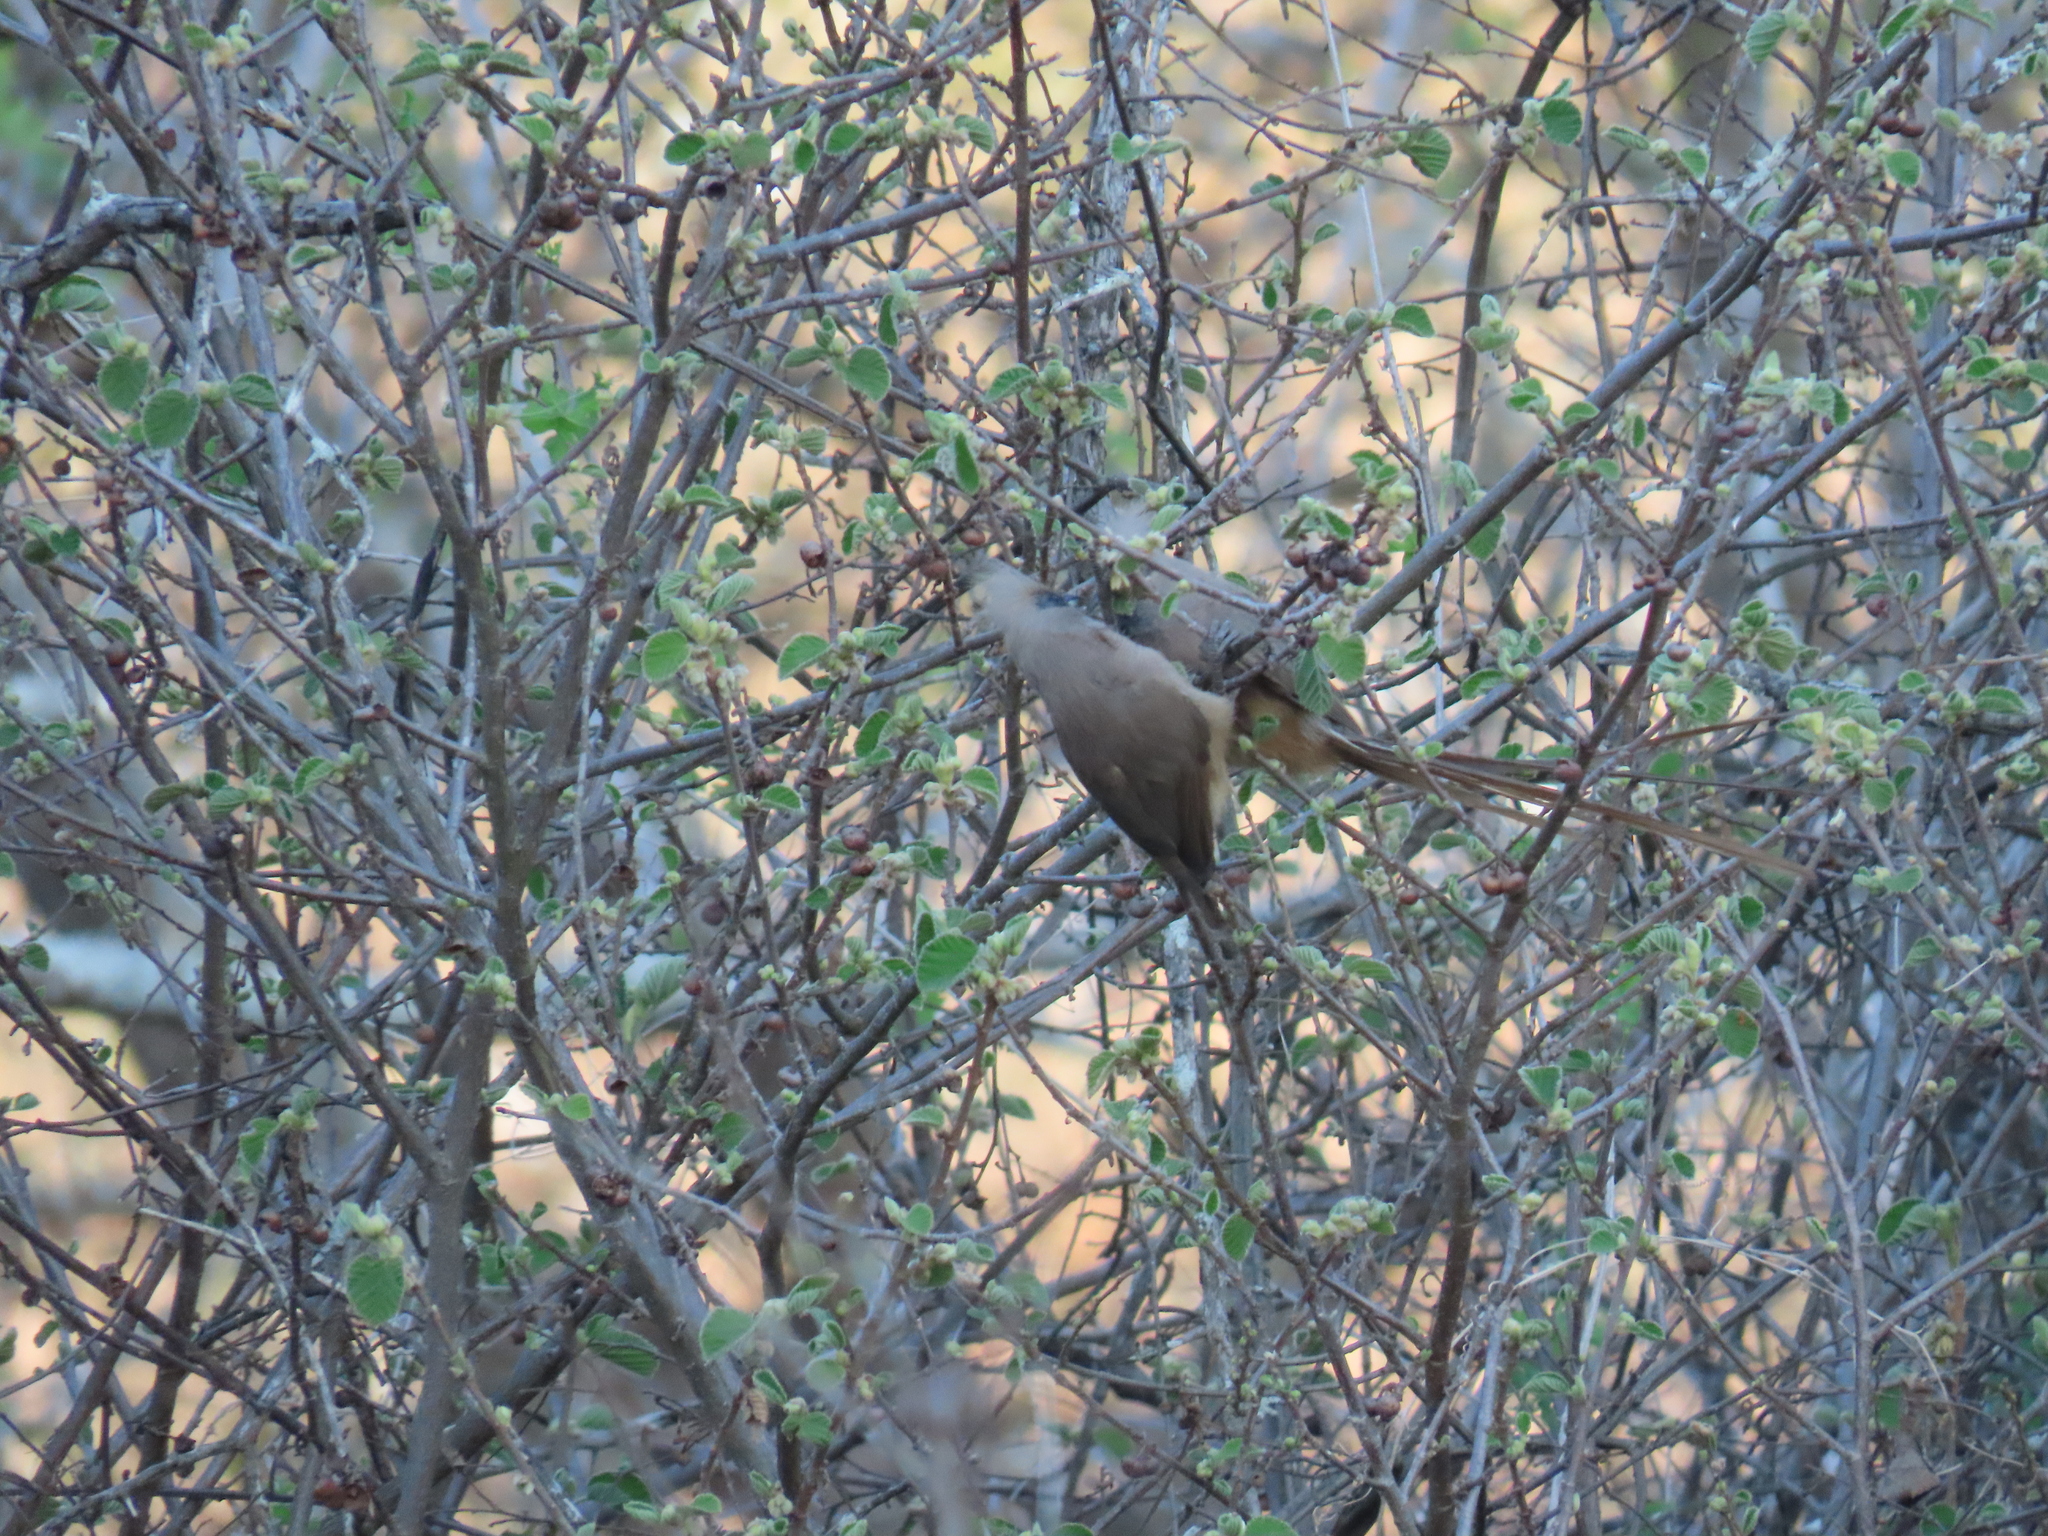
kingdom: Animalia
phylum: Chordata
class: Aves
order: Coliiformes
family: Coliidae
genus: Colius
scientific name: Colius striatus
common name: Speckled mousebird
